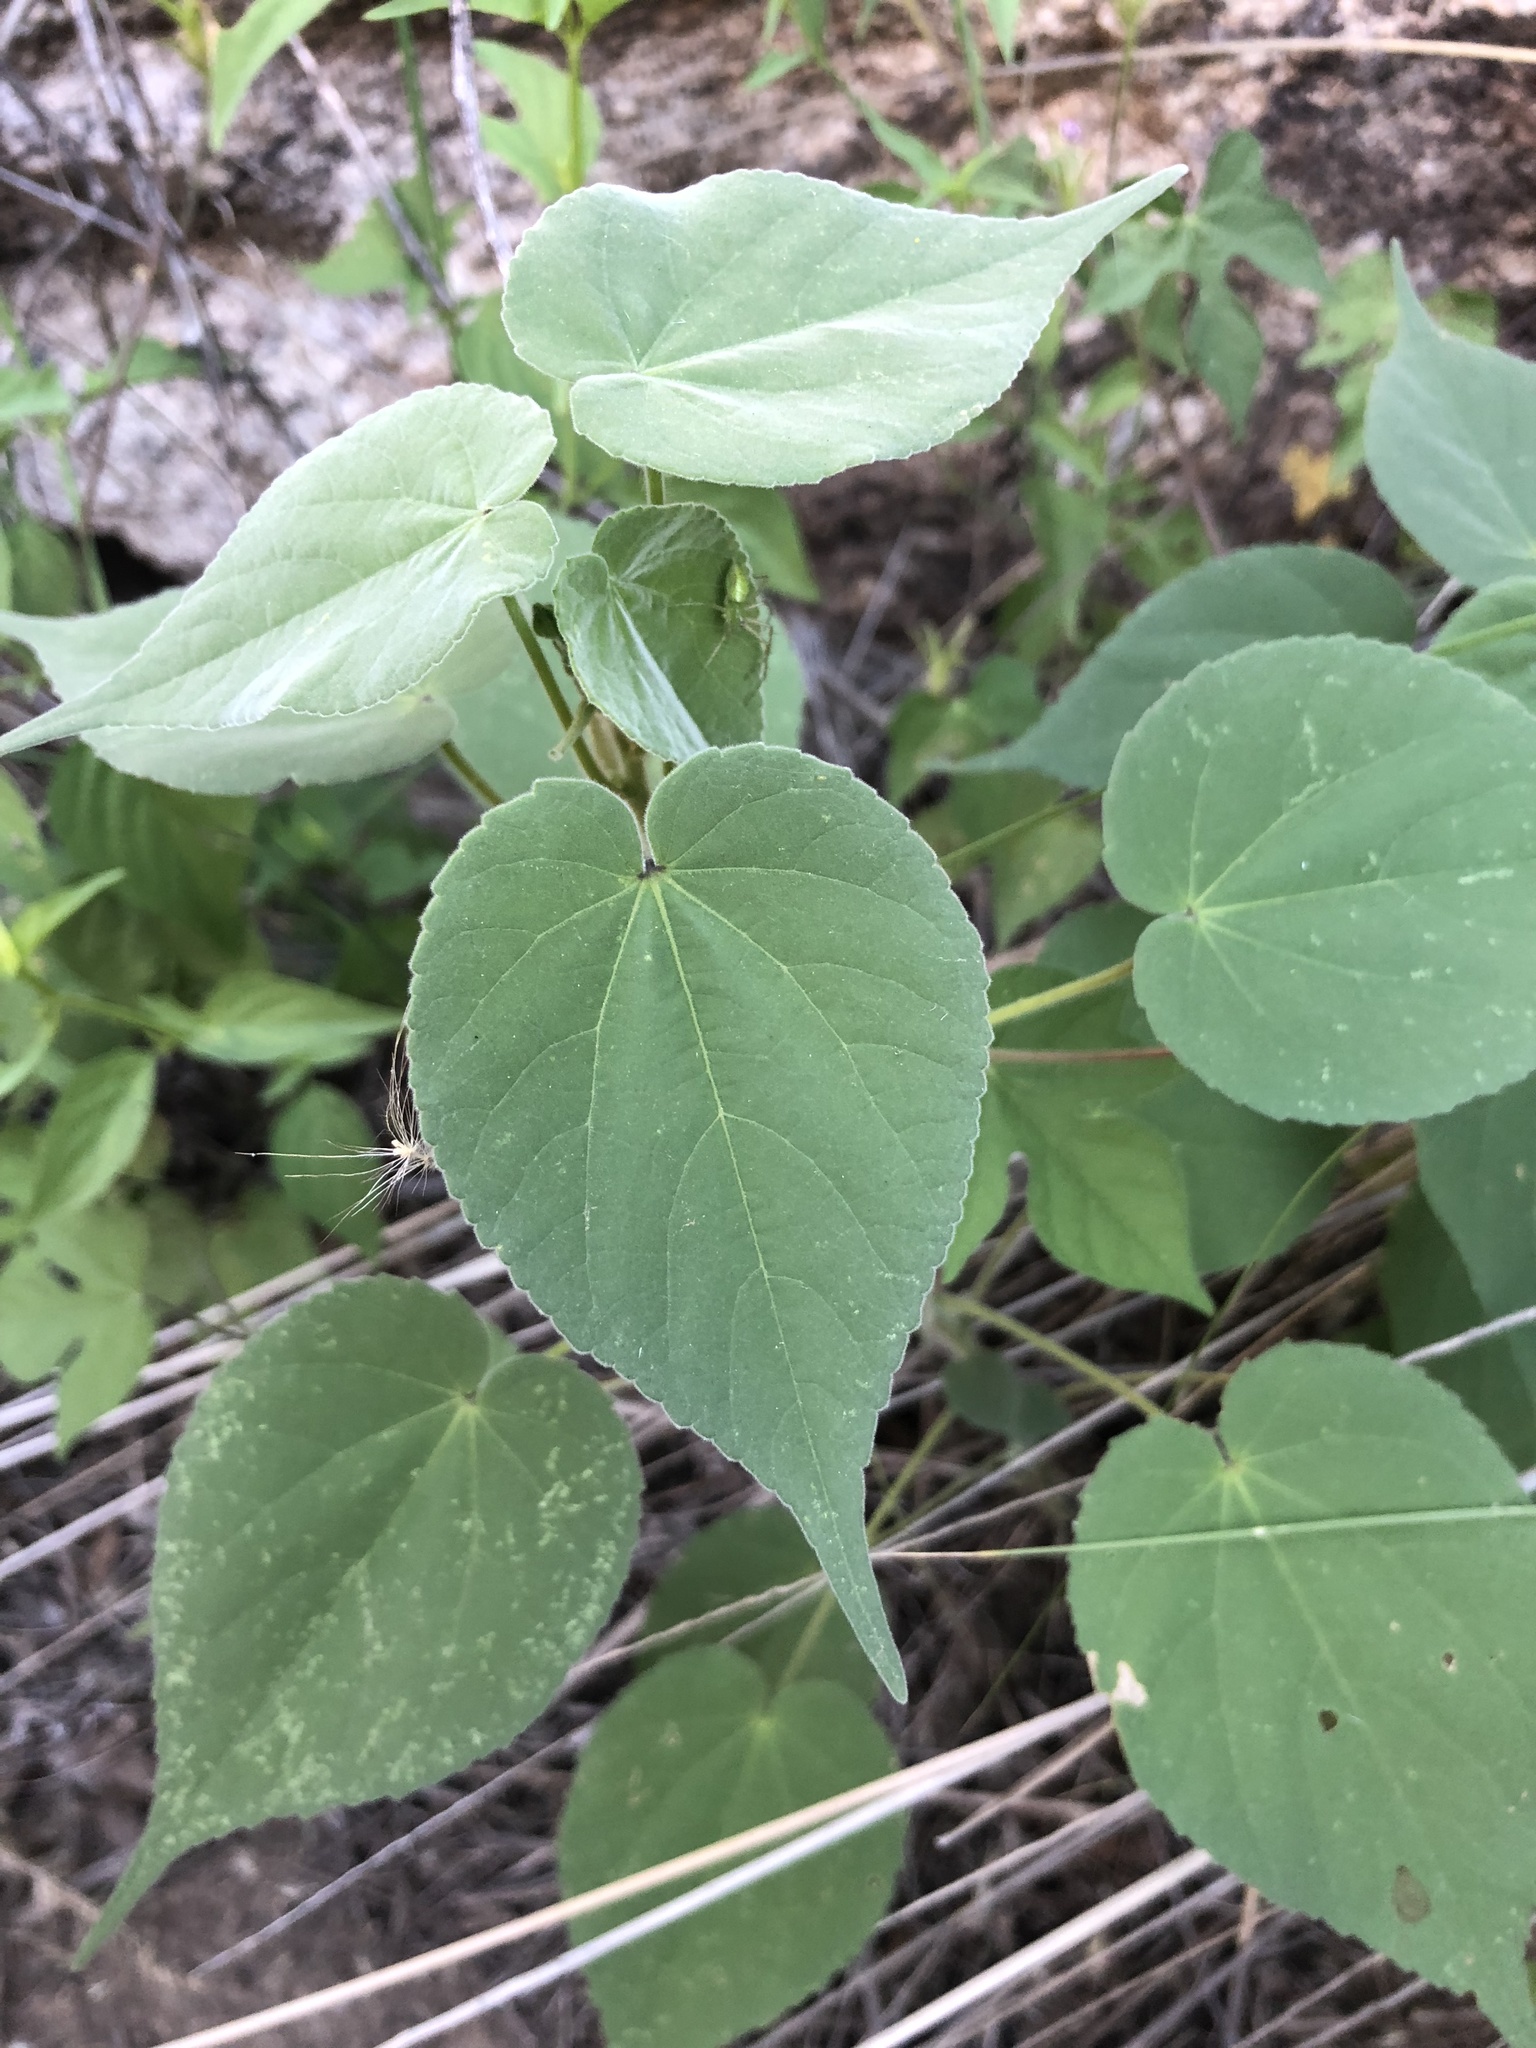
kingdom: Plantae
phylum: Tracheophyta
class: Magnoliopsida
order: Malvales
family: Malvaceae
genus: Anoda
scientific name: Anoda abutiloides
